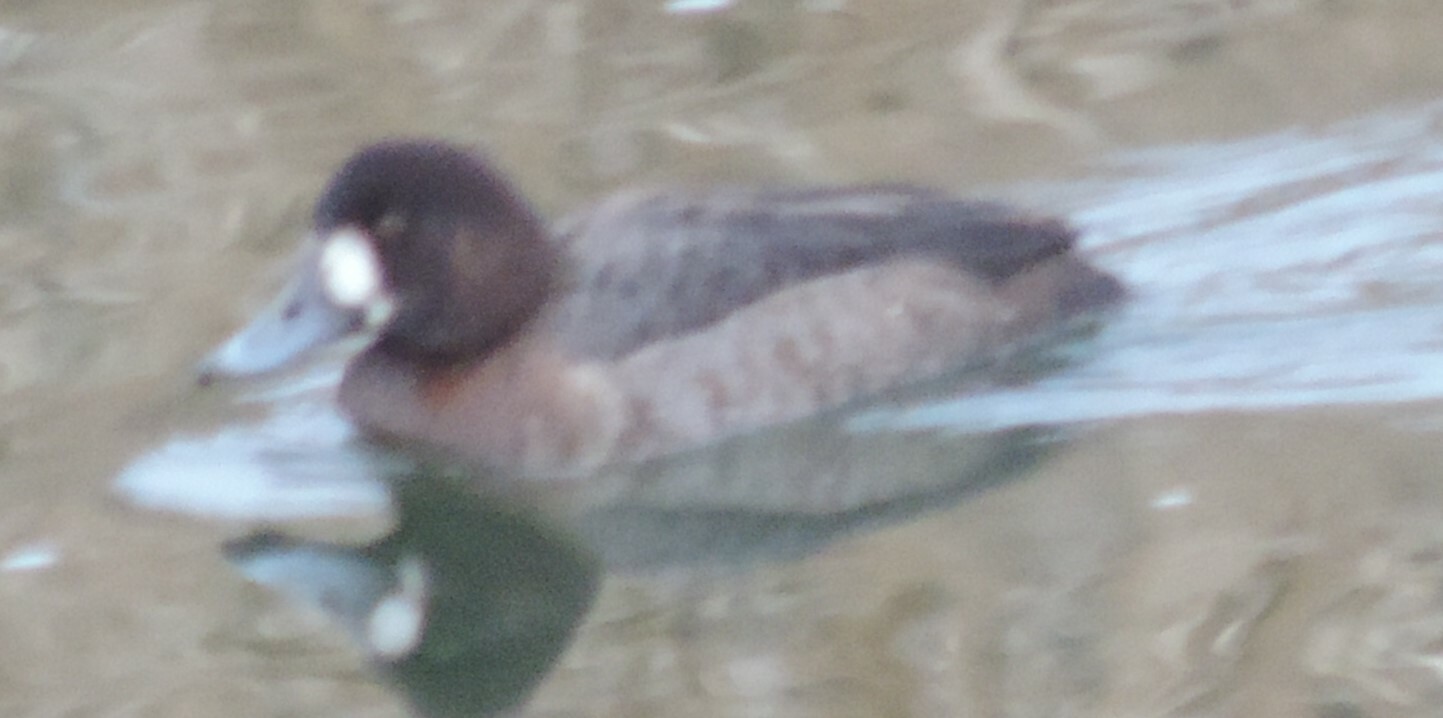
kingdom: Animalia
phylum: Chordata
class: Aves
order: Anseriformes
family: Anatidae
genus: Aythya
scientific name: Aythya marila
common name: Greater scaup
